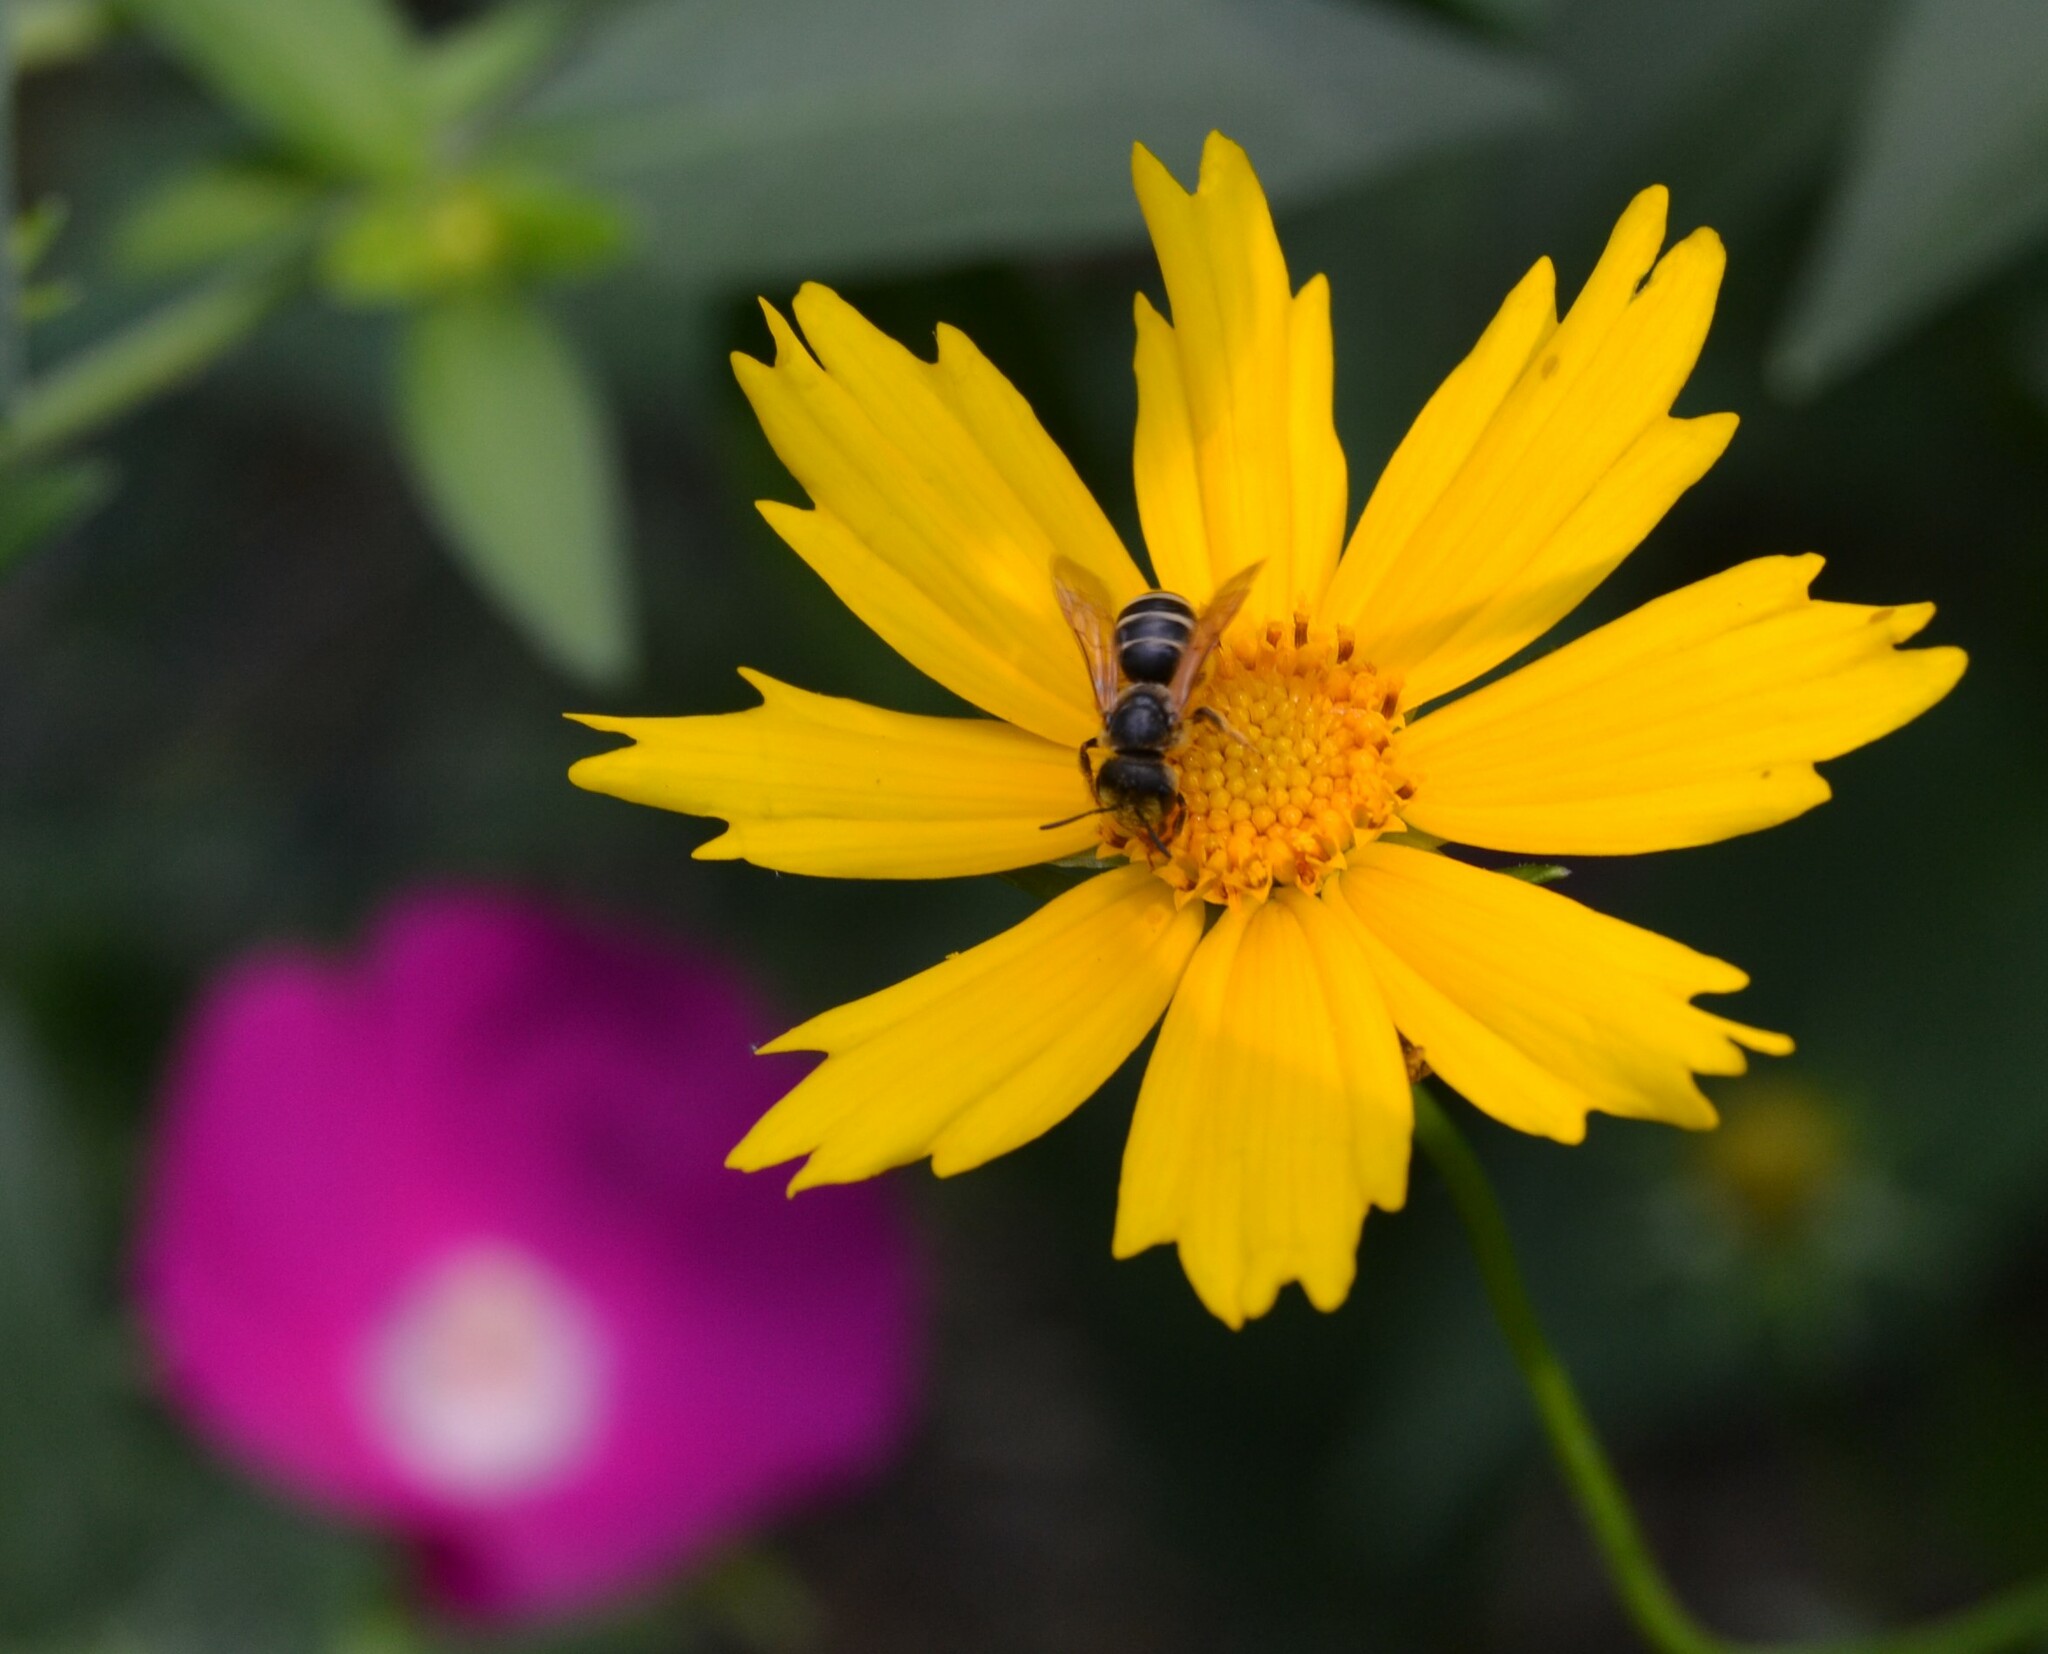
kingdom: Animalia
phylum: Arthropoda
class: Insecta
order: Hymenoptera
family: Halictidae
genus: Halictus
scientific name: Halictus ligatus
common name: Ligated furrow bee
